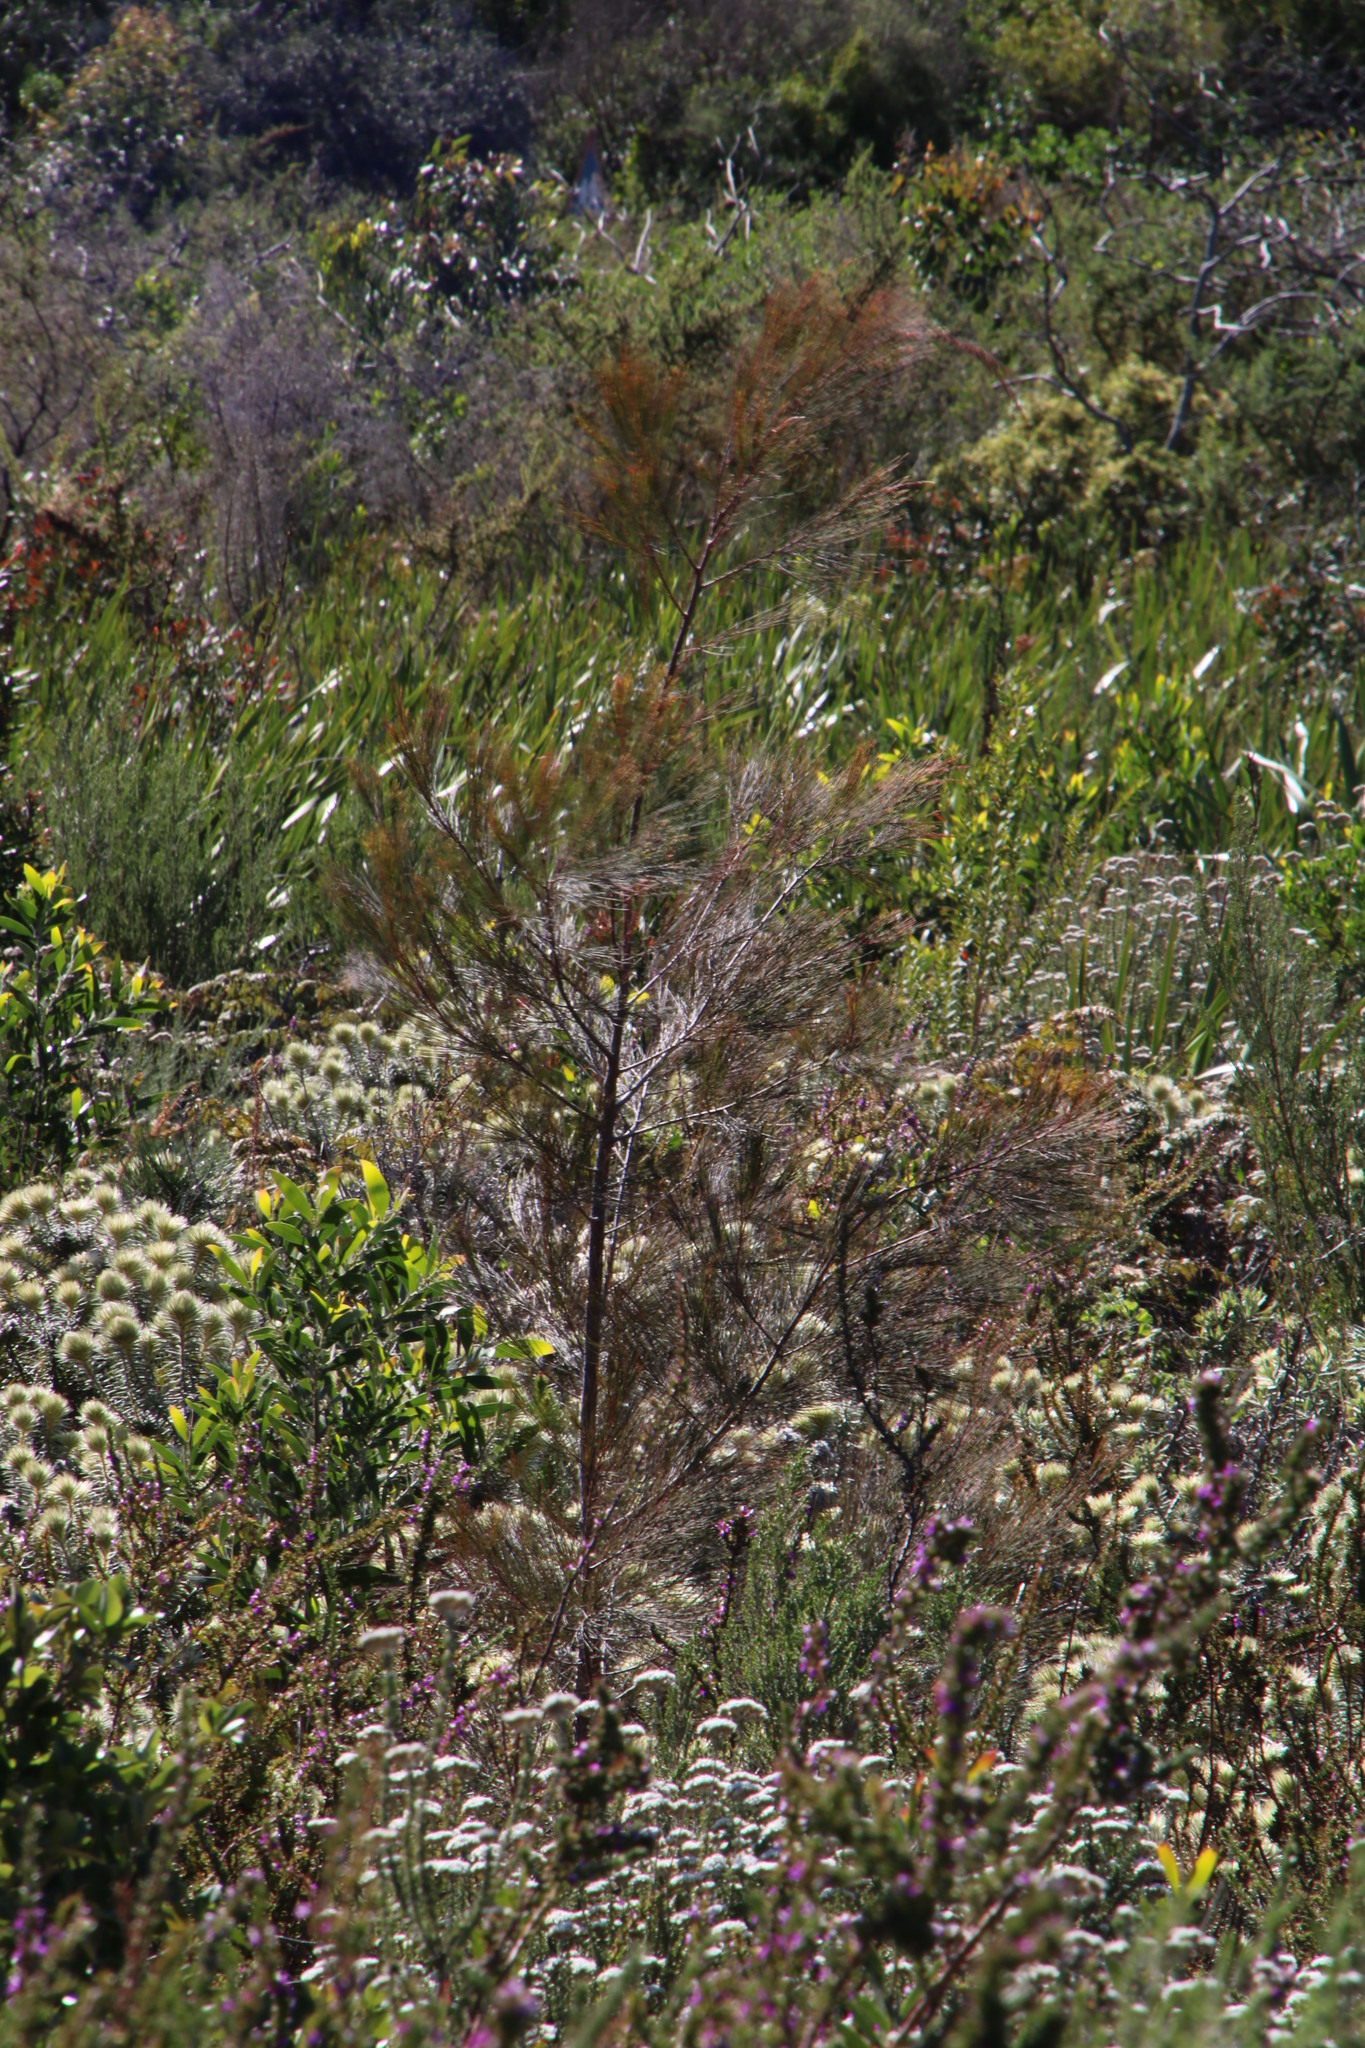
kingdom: Plantae
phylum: Tracheophyta
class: Magnoliopsida
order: Fagales
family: Casuarinaceae
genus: Allocasuarina
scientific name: Allocasuarina littoralis
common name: Black she-oak
